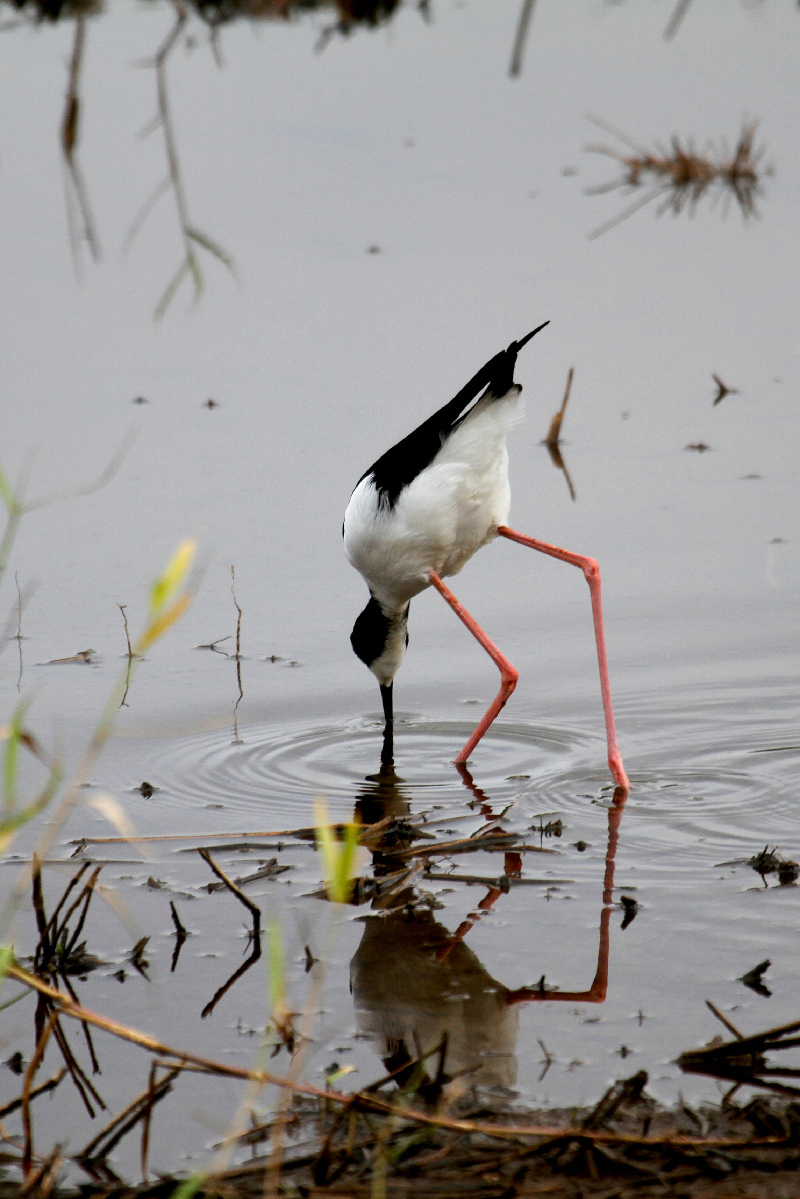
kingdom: Animalia
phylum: Chordata
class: Aves
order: Charadriiformes
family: Recurvirostridae
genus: Himantopus
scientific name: Himantopus mexicanus
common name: Black-necked stilt
